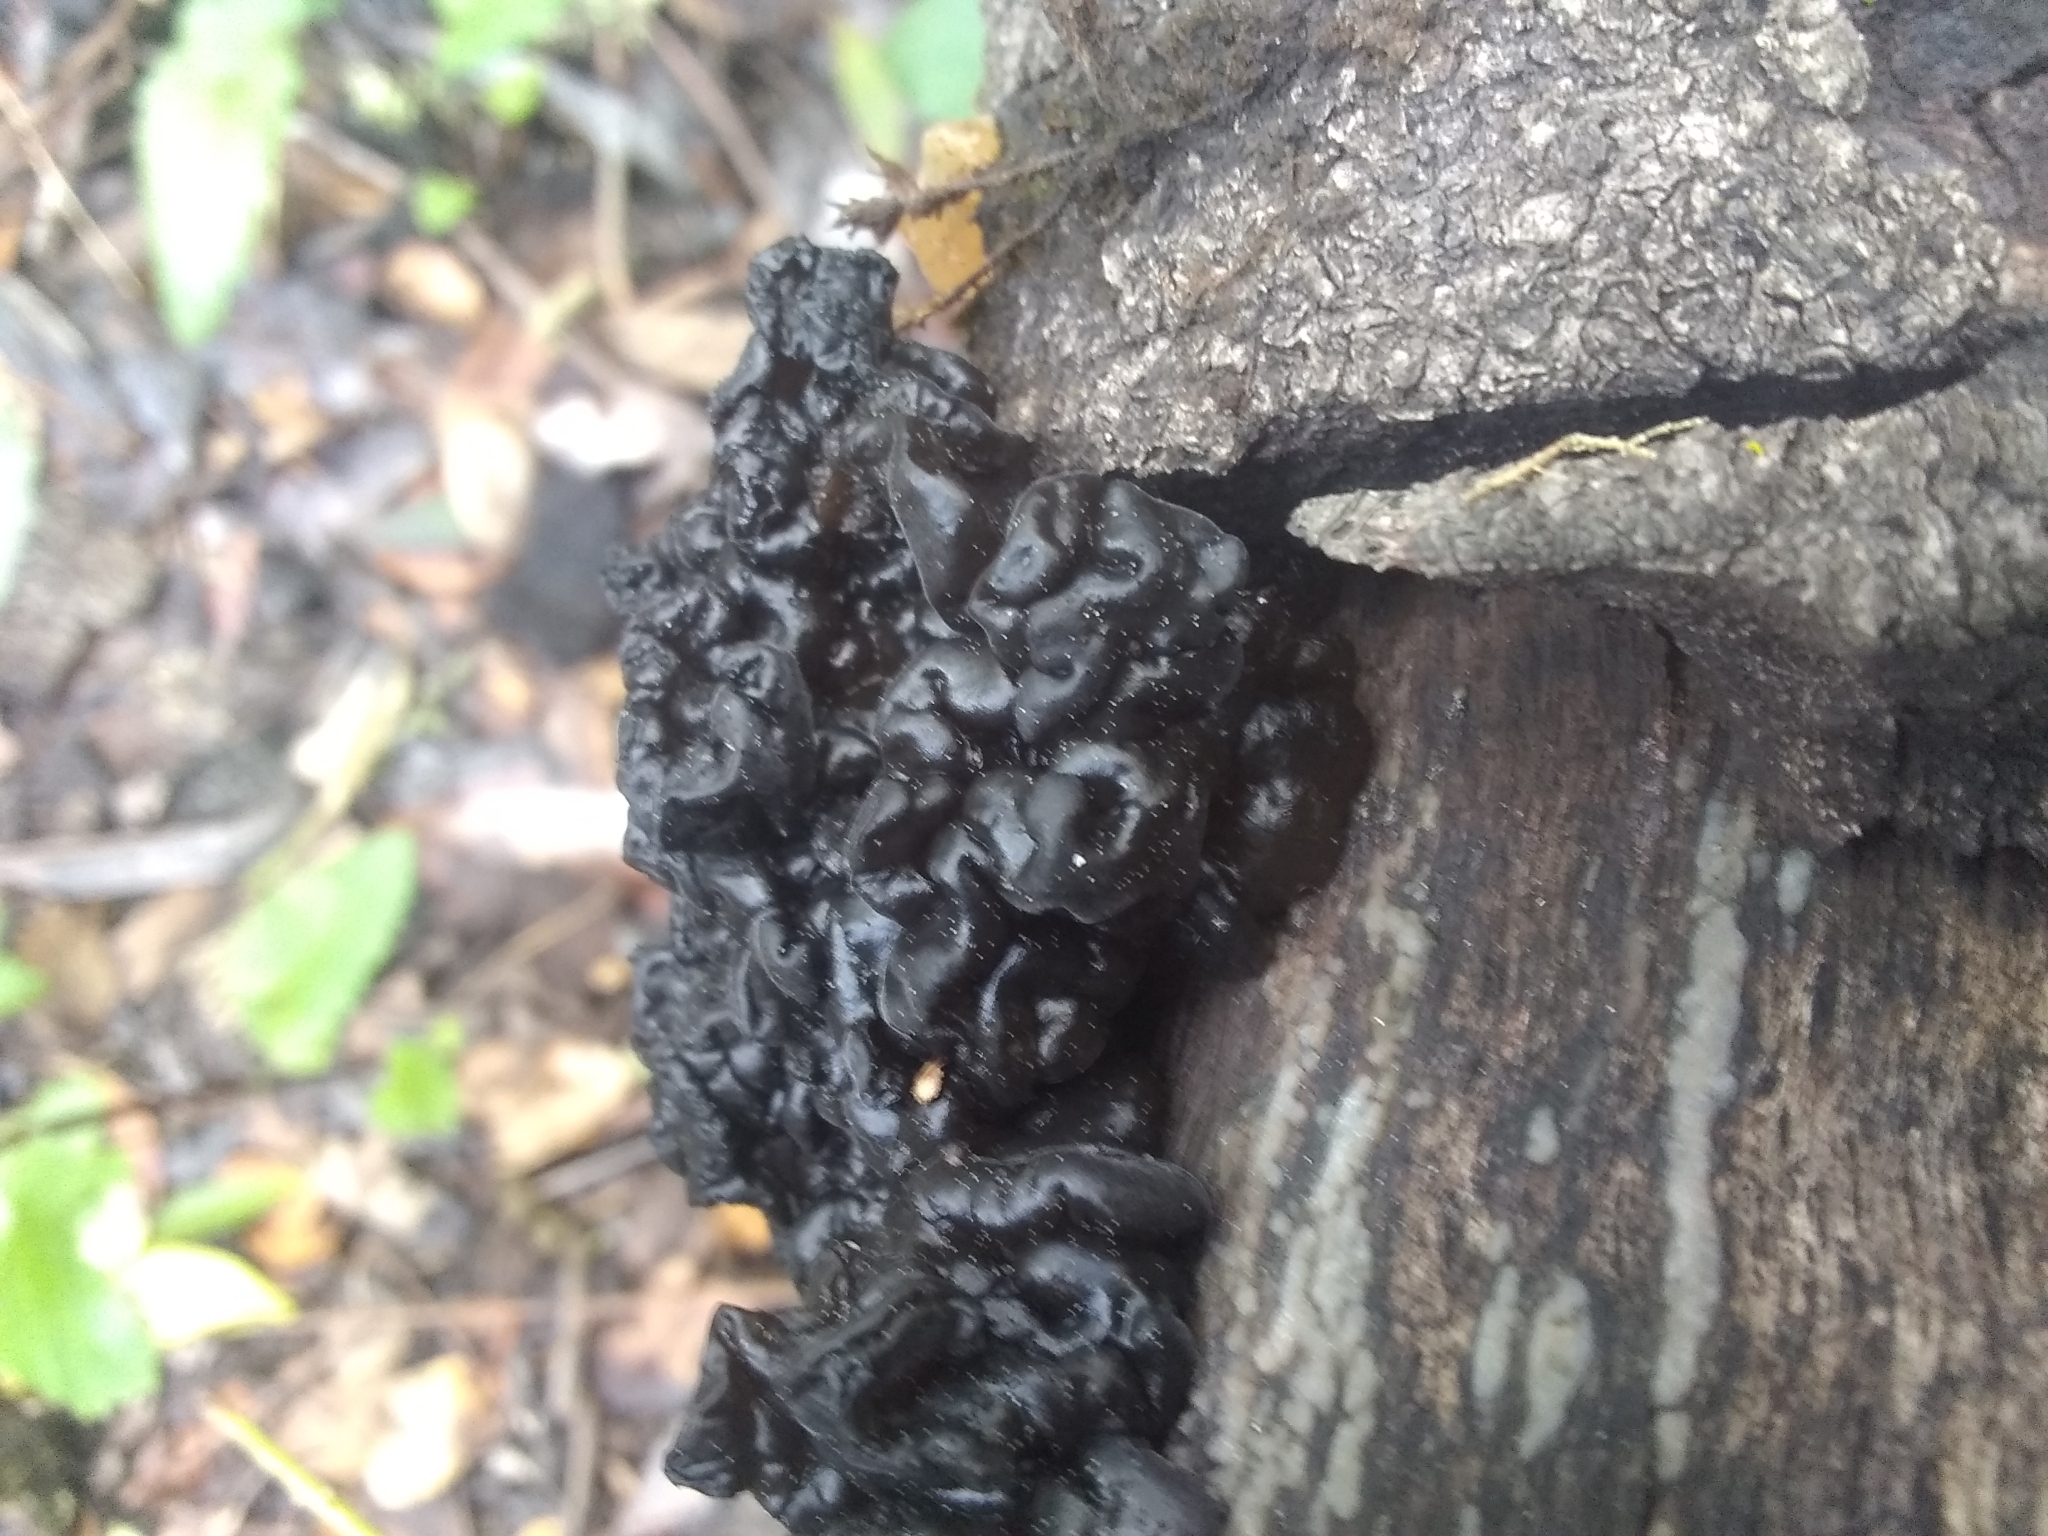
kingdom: Fungi
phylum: Basidiomycota
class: Agaricomycetes
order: Auriculariales
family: Auriculariaceae
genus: Exidia
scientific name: Exidia glandulosa
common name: Witches' butter
